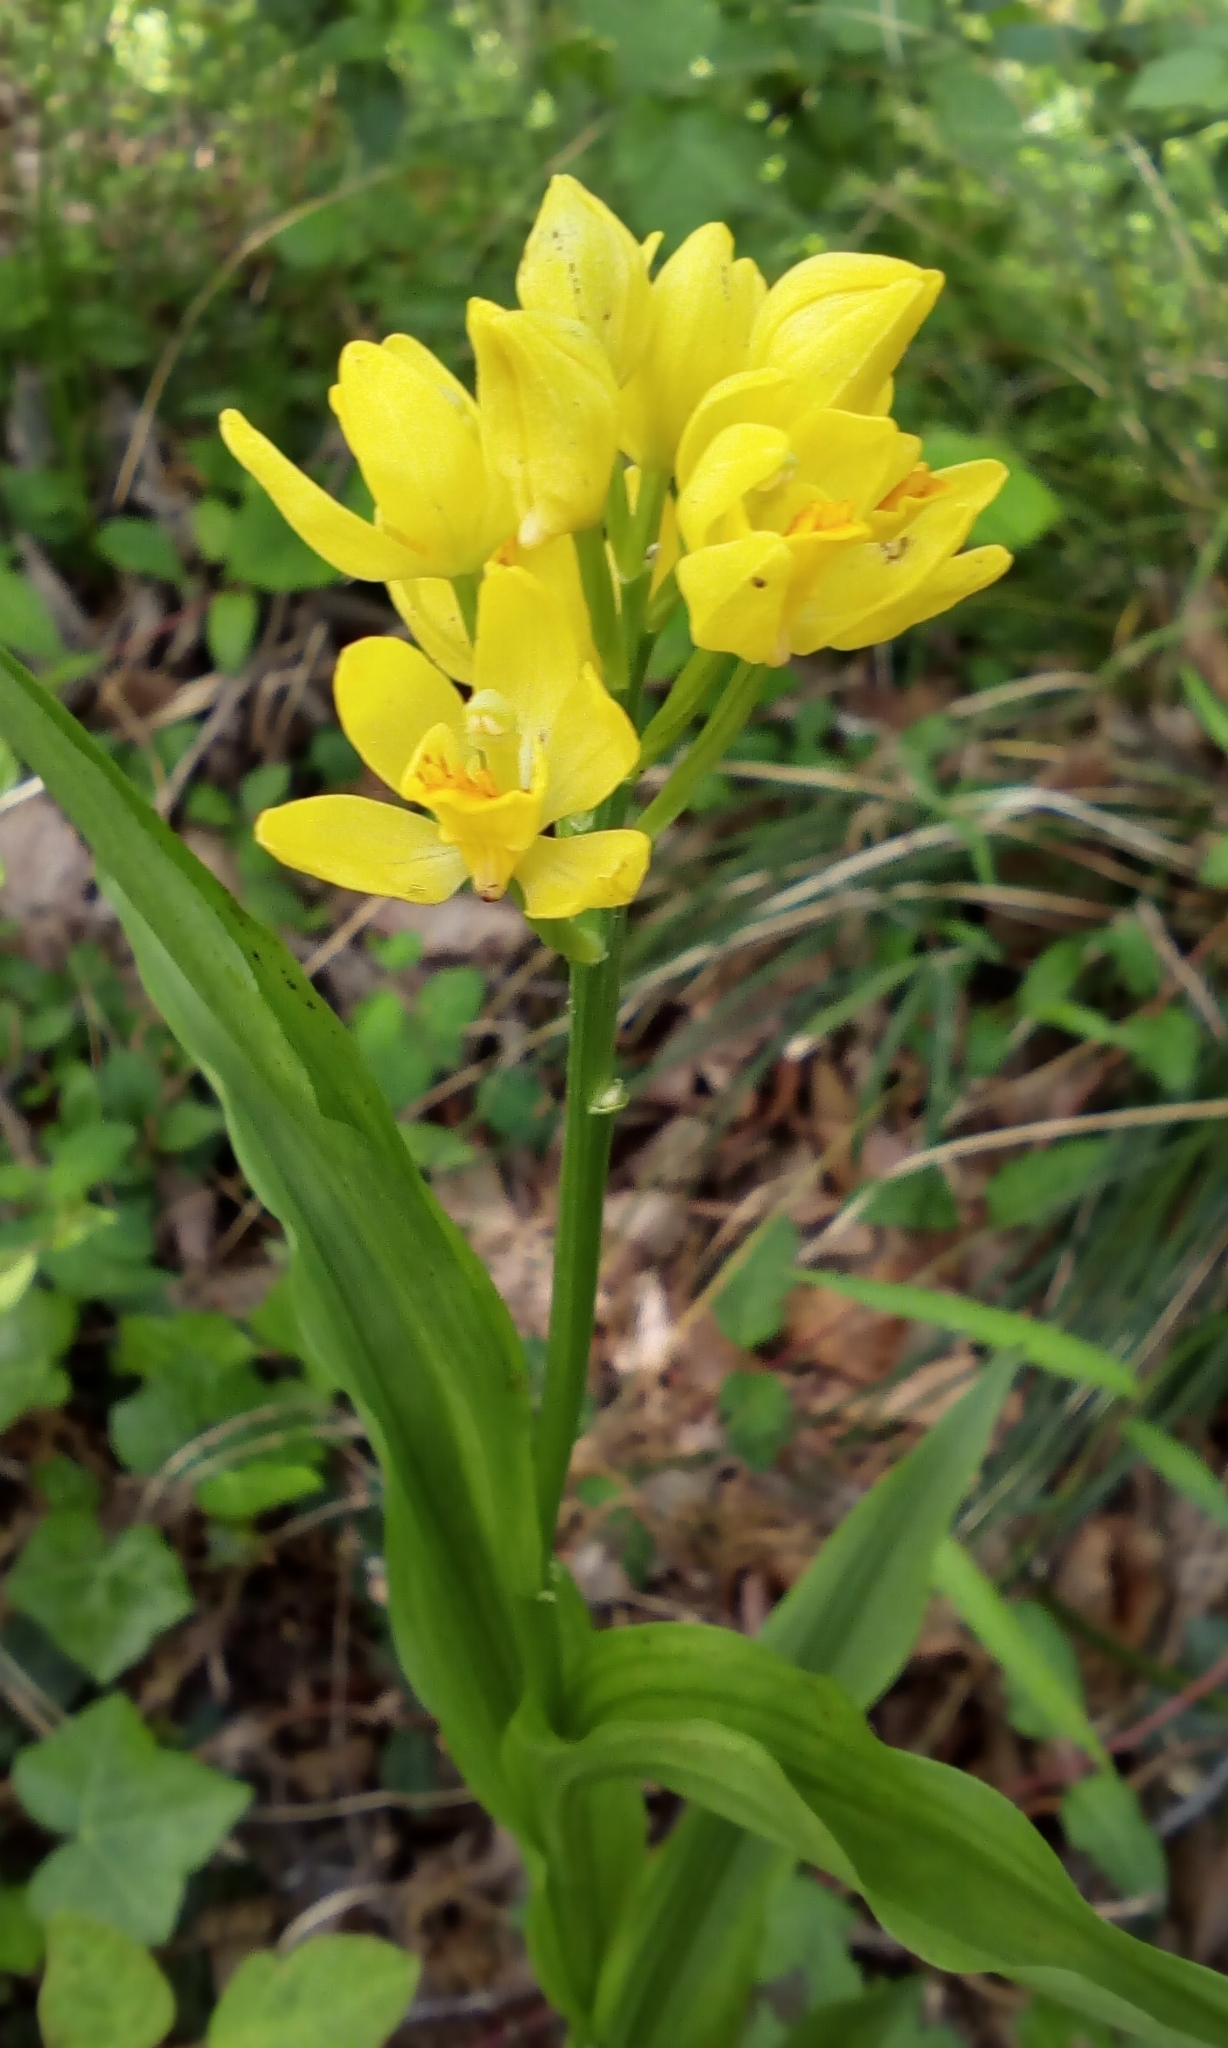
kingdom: Plantae
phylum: Tracheophyta
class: Liliopsida
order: Asparagales
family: Orchidaceae
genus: Cephalanthera
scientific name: Cephalanthera falcata
